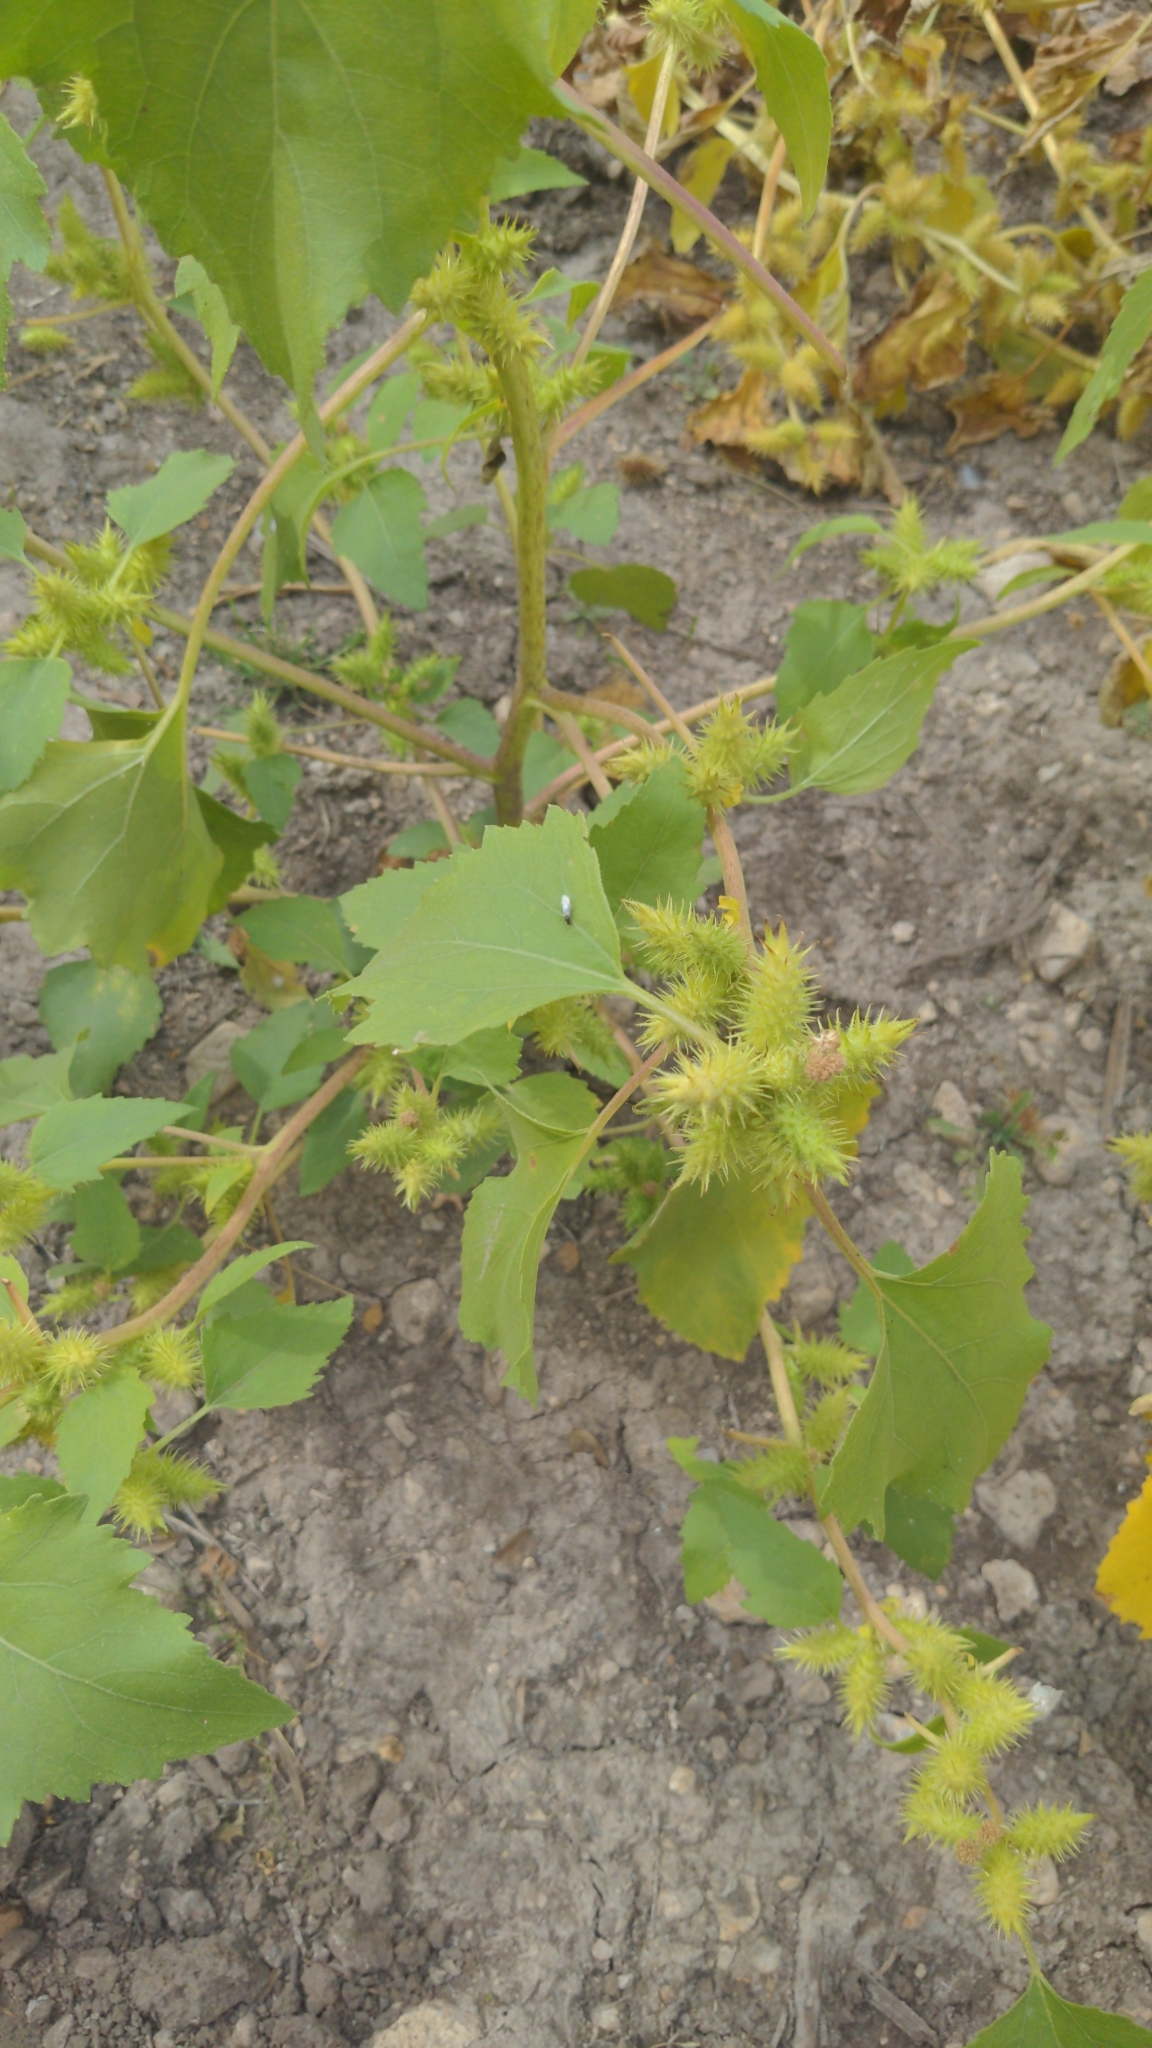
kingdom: Plantae
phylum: Tracheophyta
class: Magnoliopsida
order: Asterales
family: Asteraceae
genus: Xanthium
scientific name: Xanthium strumarium
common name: Rough cocklebur
